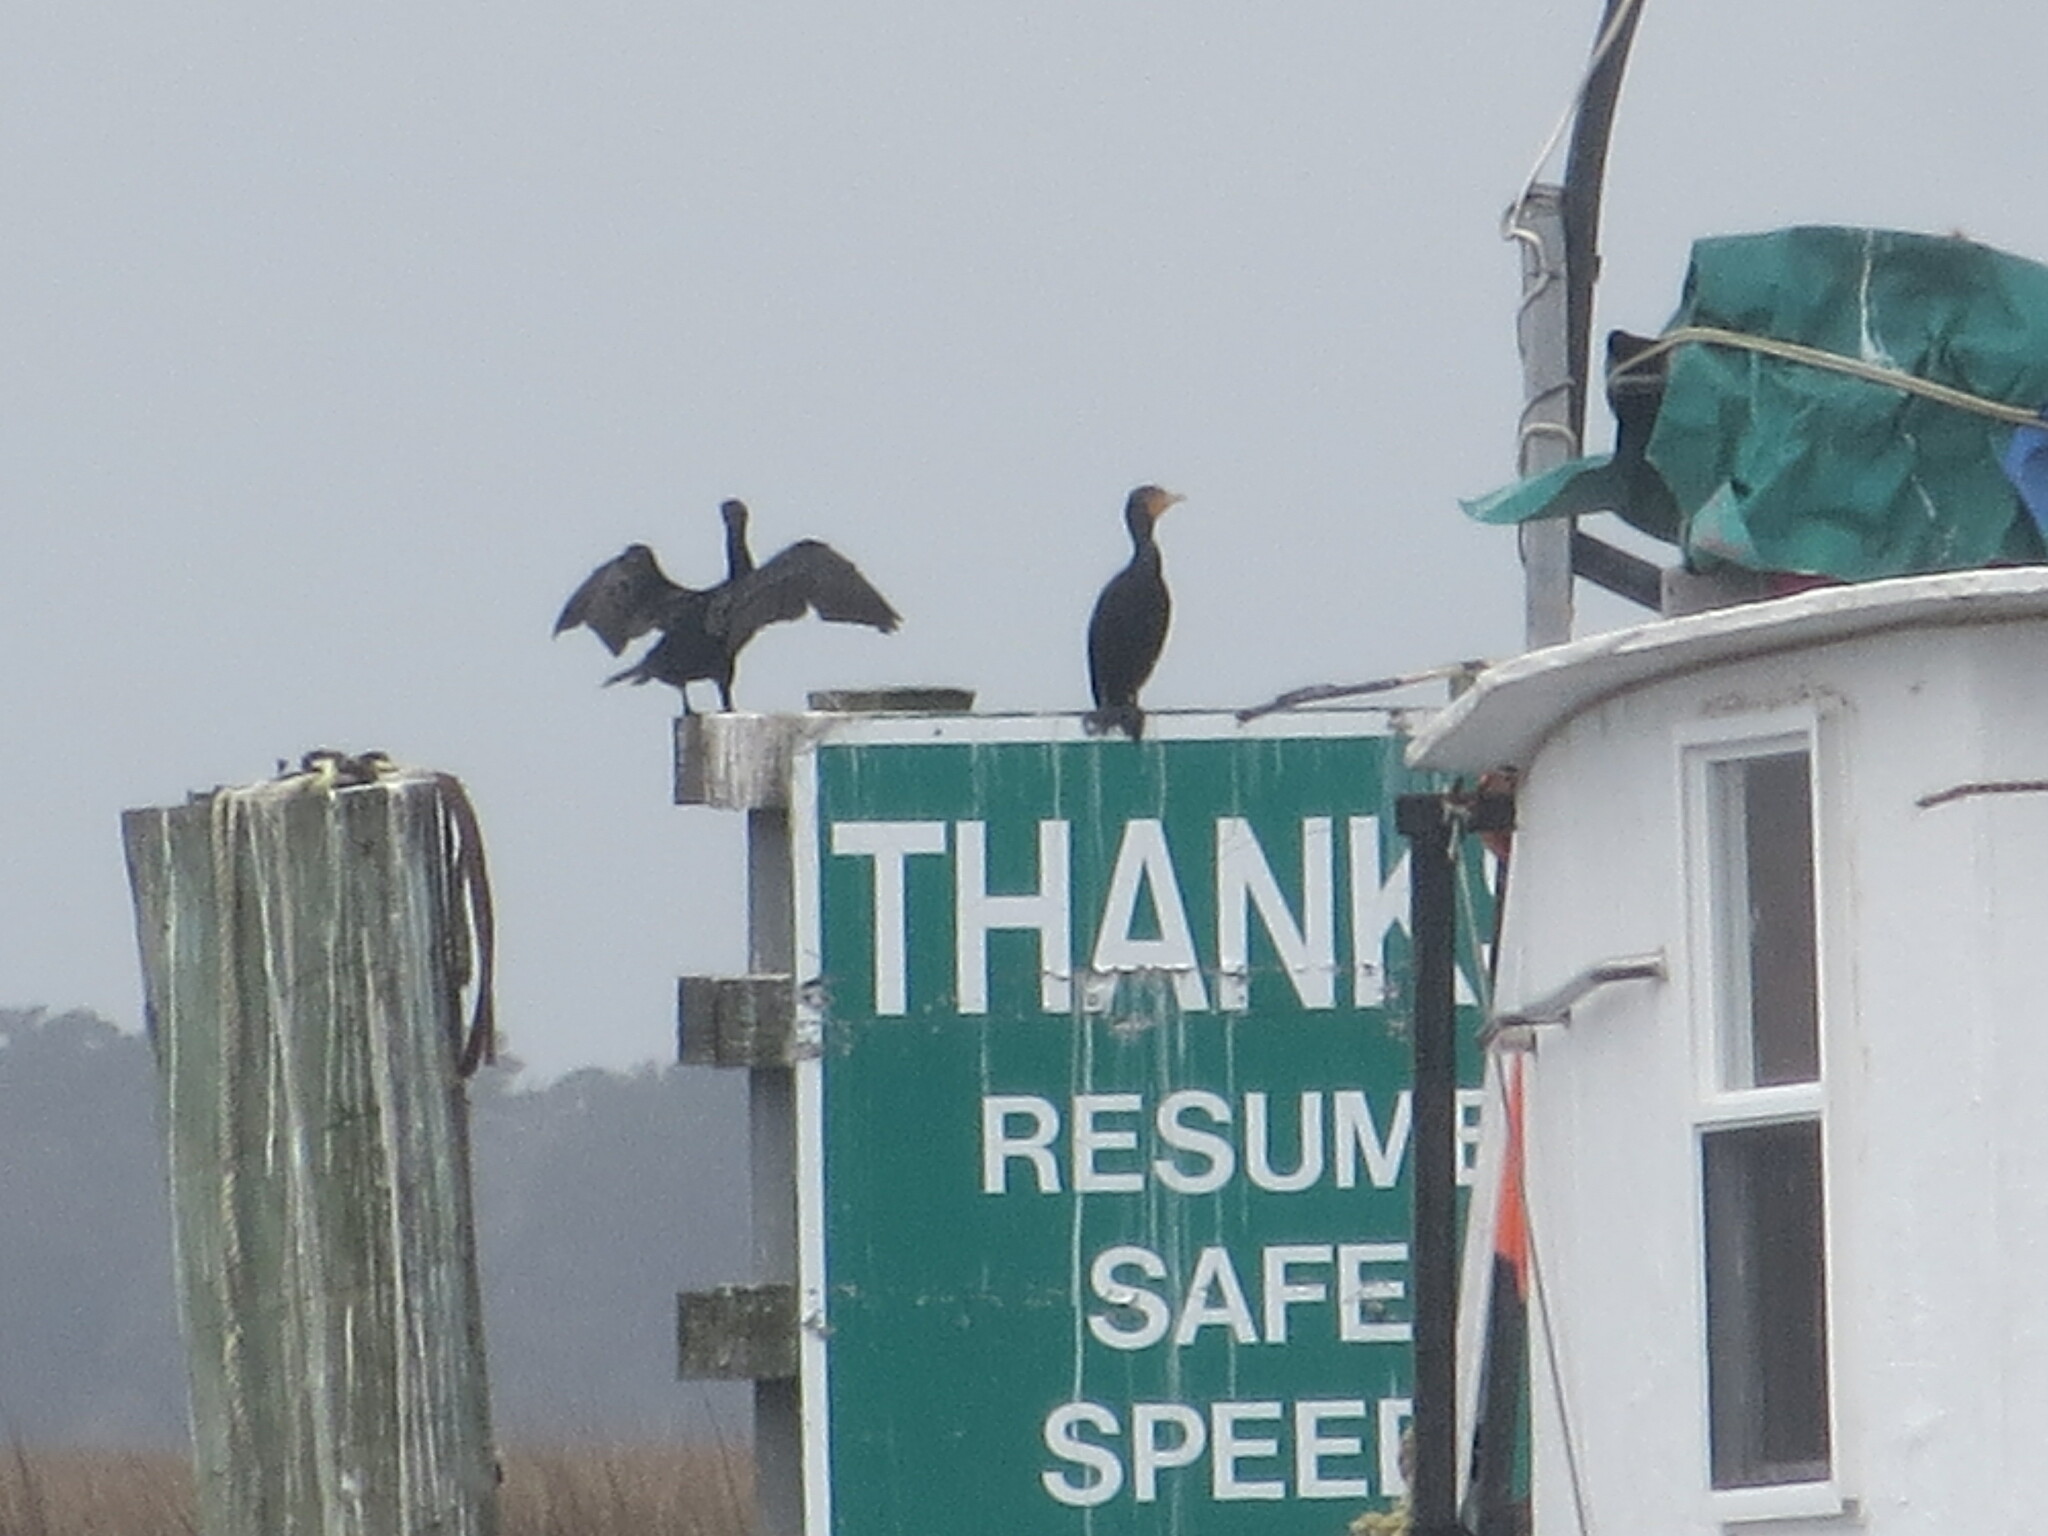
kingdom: Animalia
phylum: Chordata
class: Aves
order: Suliformes
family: Phalacrocoracidae
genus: Phalacrocorax
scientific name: Phalacrocorax auritus
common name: Double-crested cormorant
